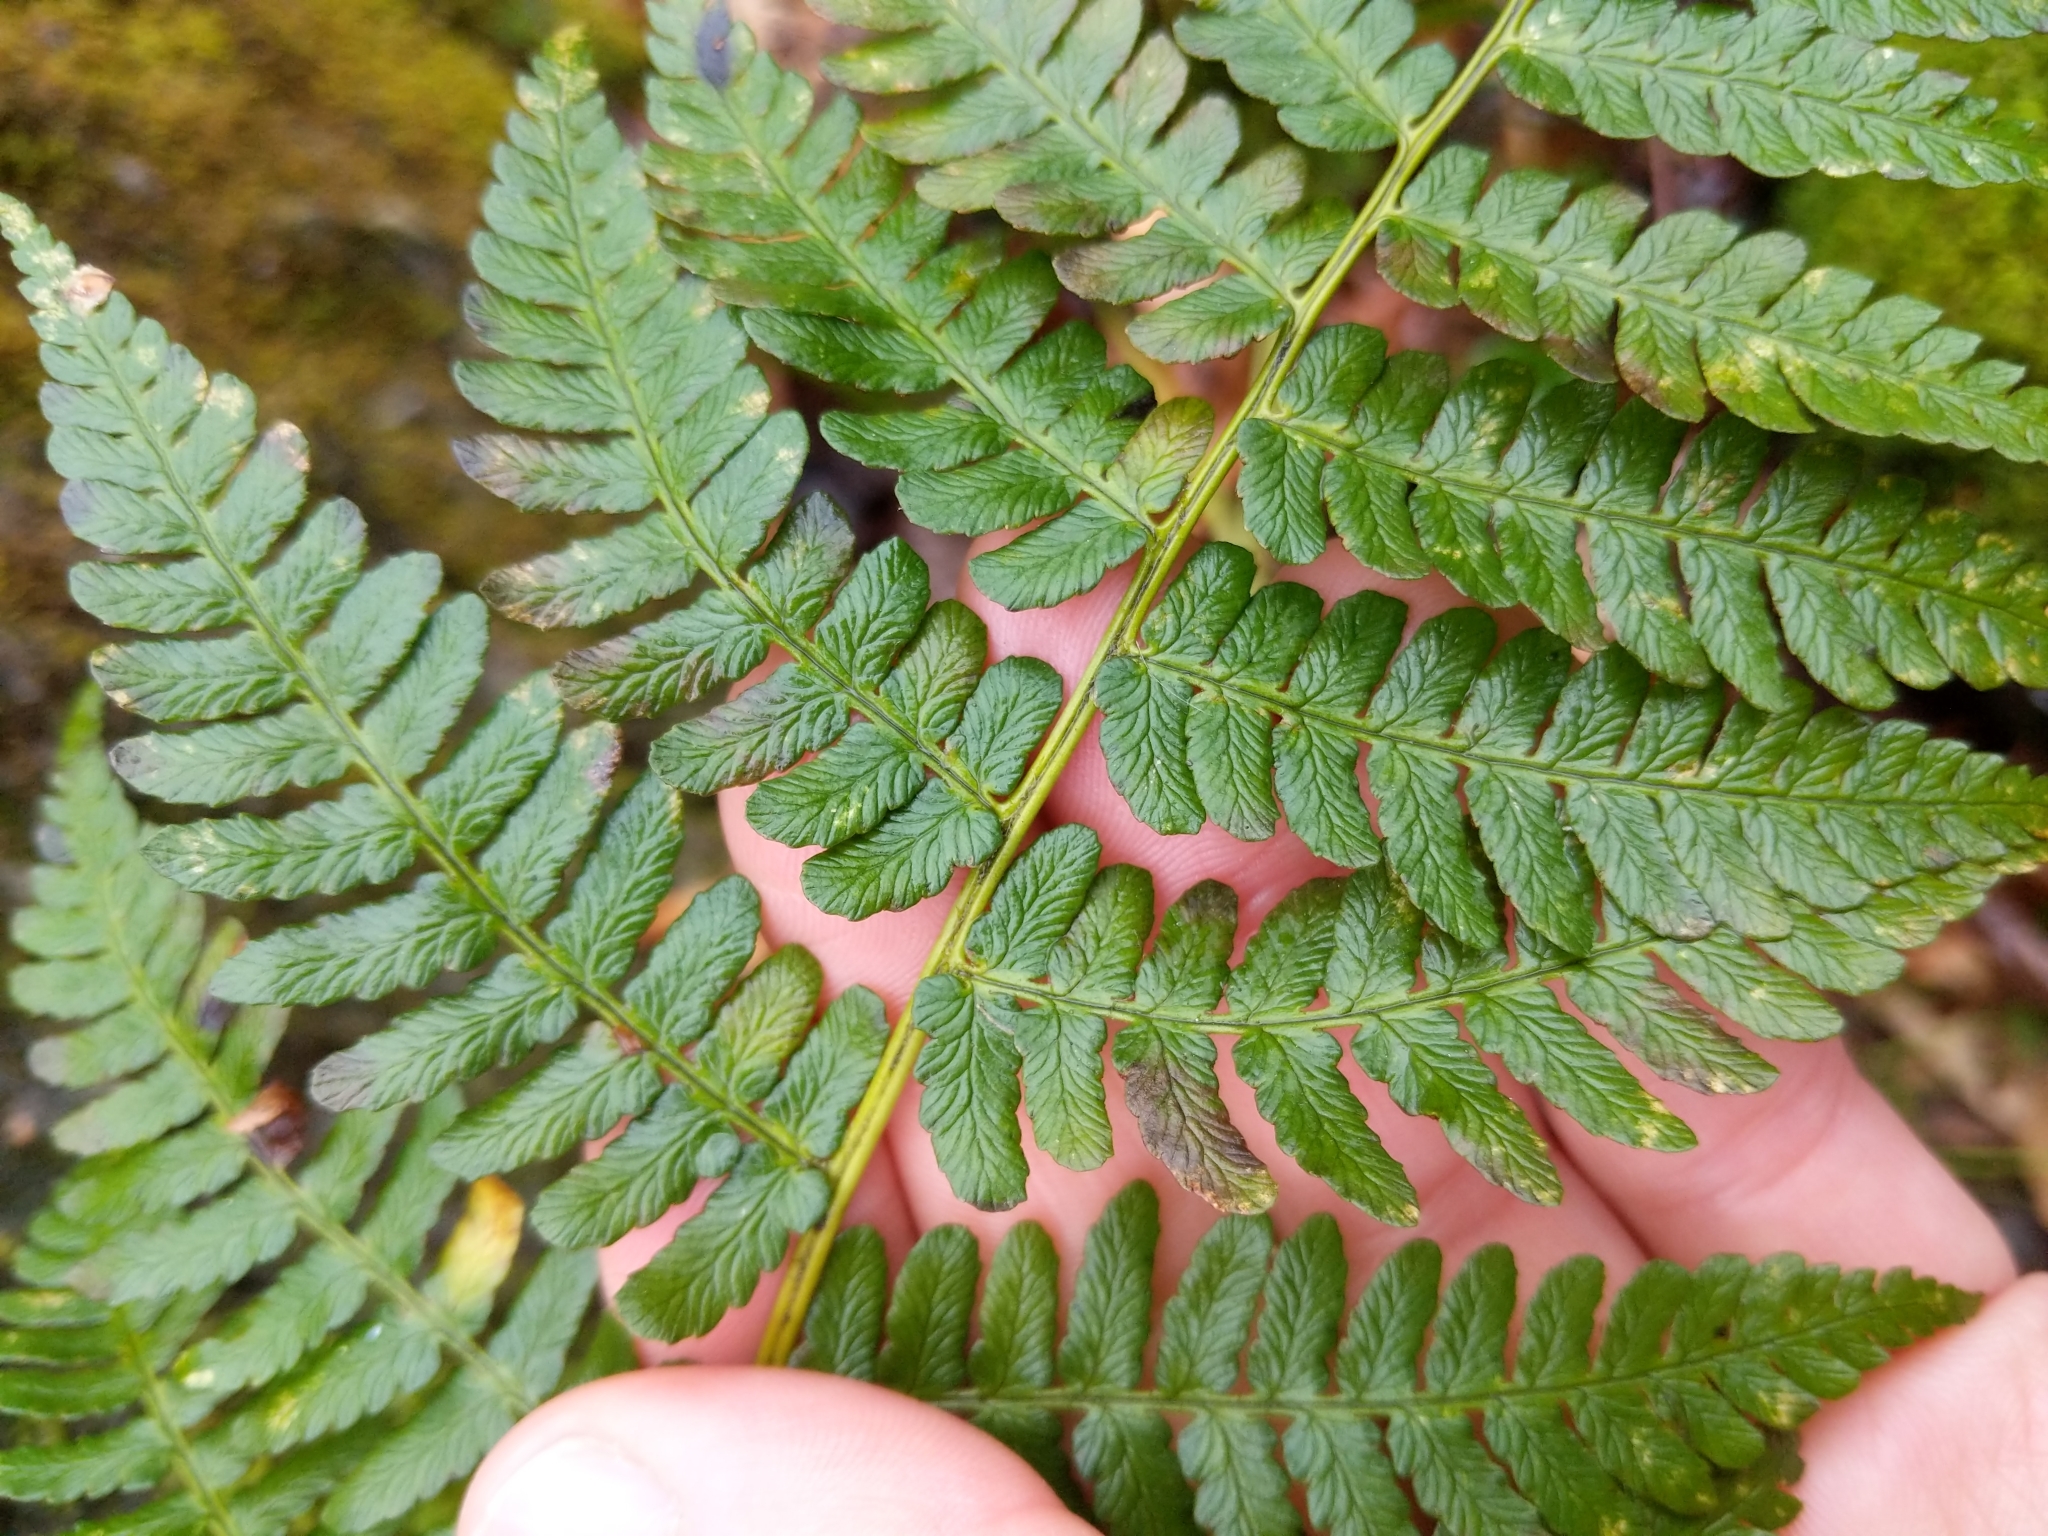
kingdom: Plantae
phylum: Tracheophyta
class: Polypodiopsida
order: Polypodiales
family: Dryopteridaceae
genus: Dryopteris
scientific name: Dryopteris marginalis
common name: Marginal wood fern
